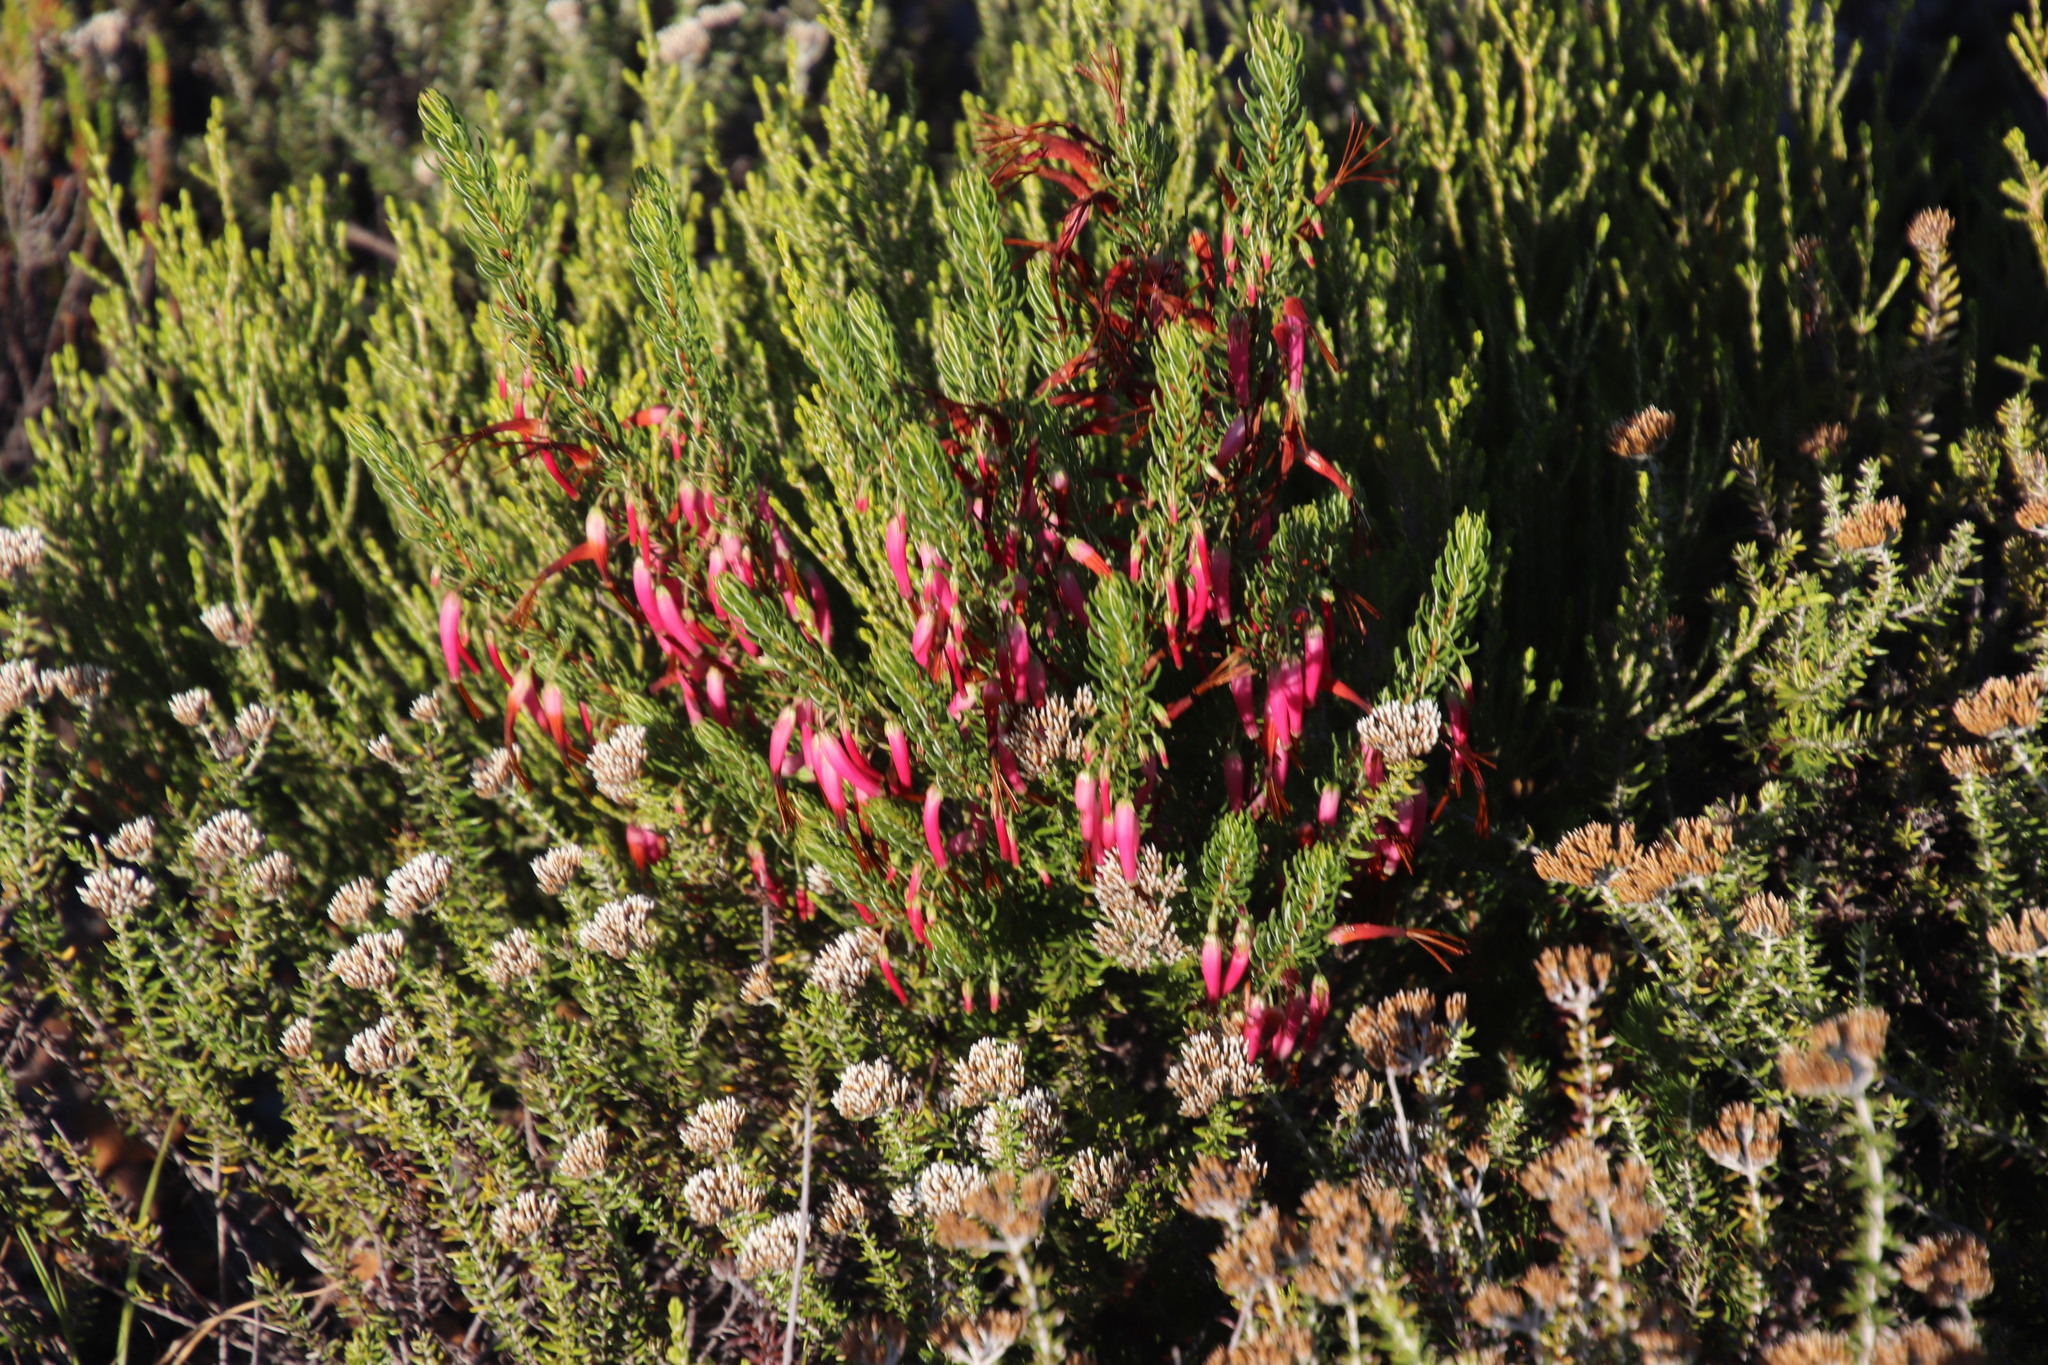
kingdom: Plantae
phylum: Tracheophyta
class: Magnoliopsida
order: Ericales
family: Ericaceae
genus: Erica
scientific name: Erica plukenetii
